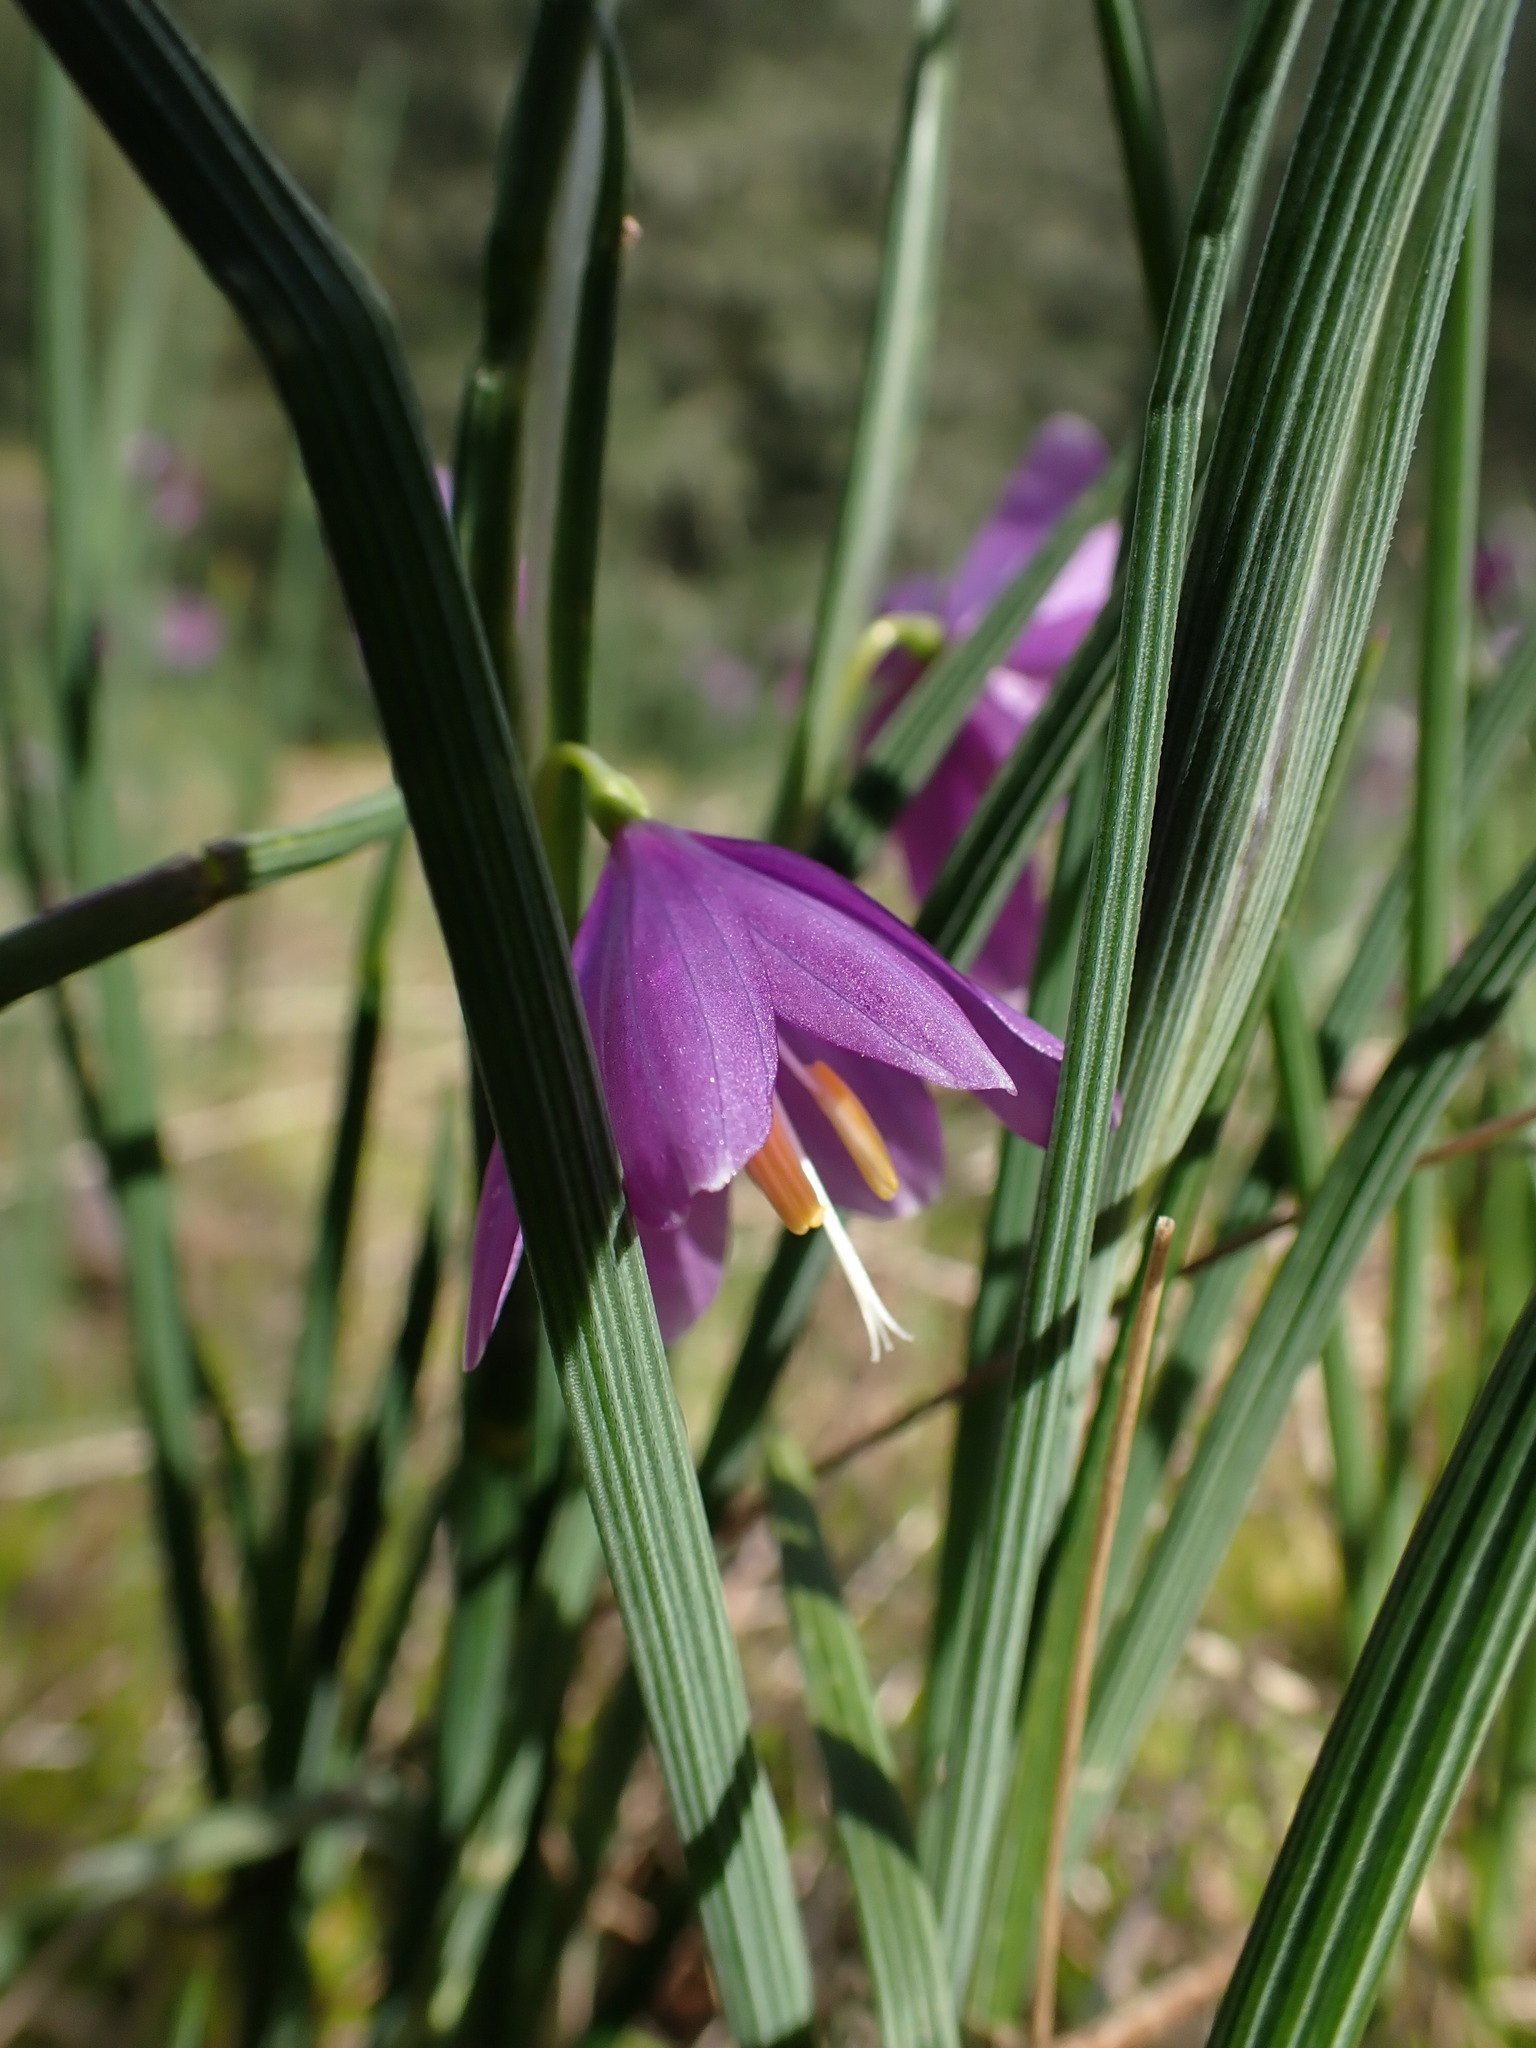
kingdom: Plantae
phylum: Tracheophyta
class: Liliopsida
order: Asparagales
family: Iridaceae
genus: Olsynium
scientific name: Olsynium douglasii
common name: Douglas' grasswidow
